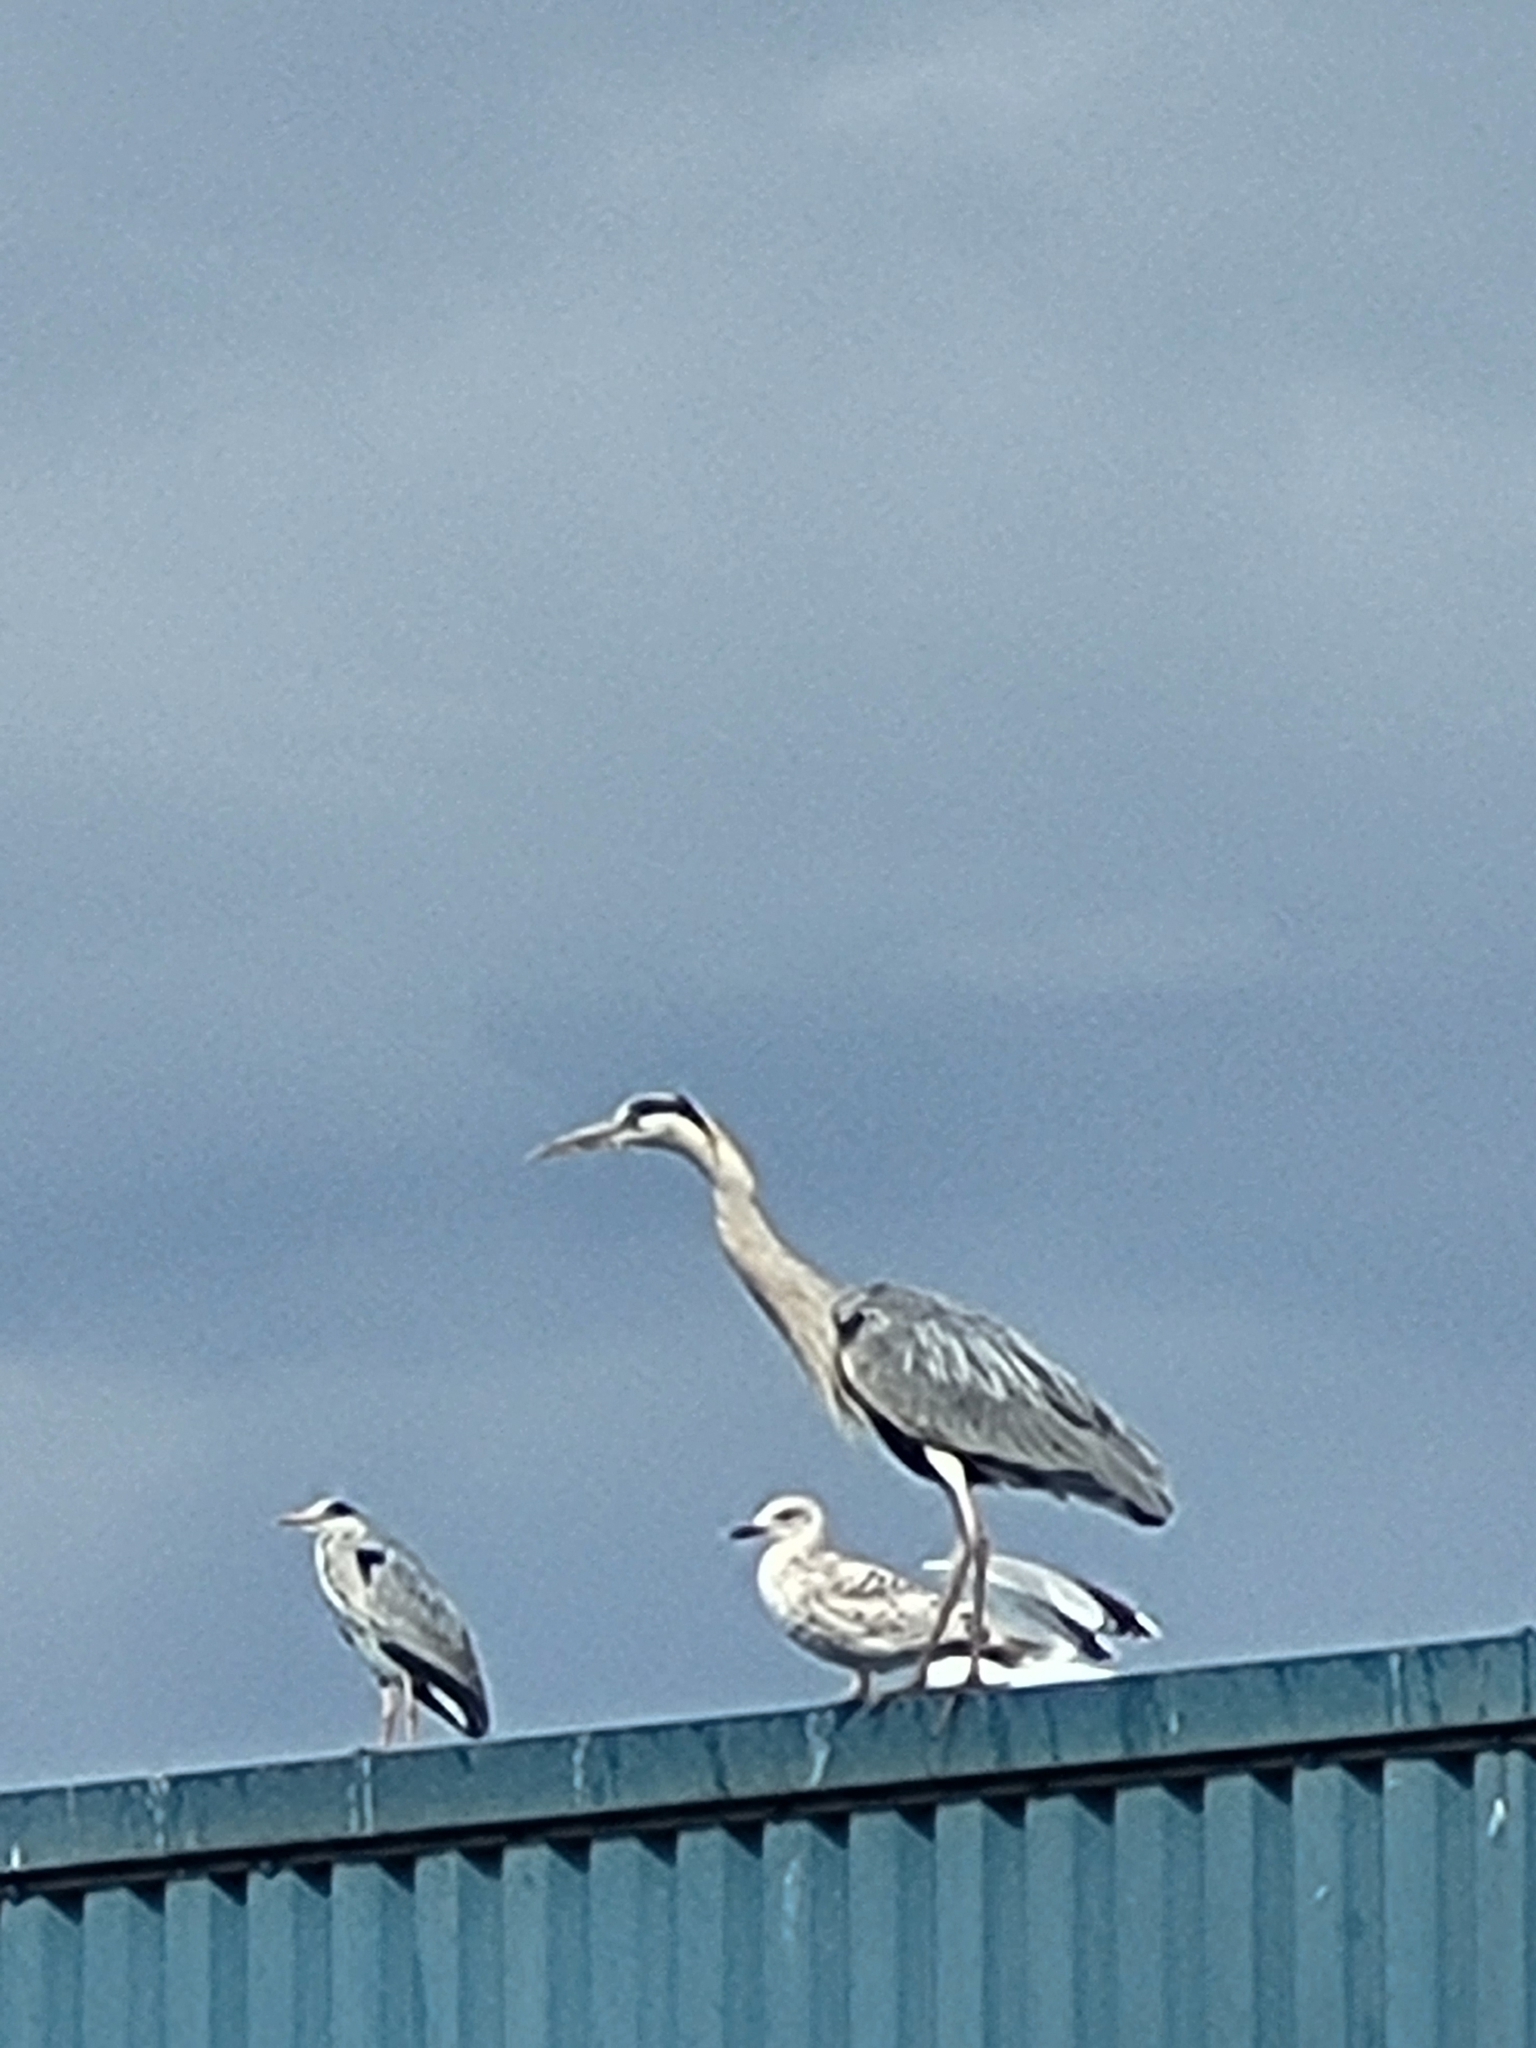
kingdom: Animalia
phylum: Chordata
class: Aves
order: Pelecaniformes
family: Ardeidae
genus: Ardea
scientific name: Ardea cinerea
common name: Grey heron
